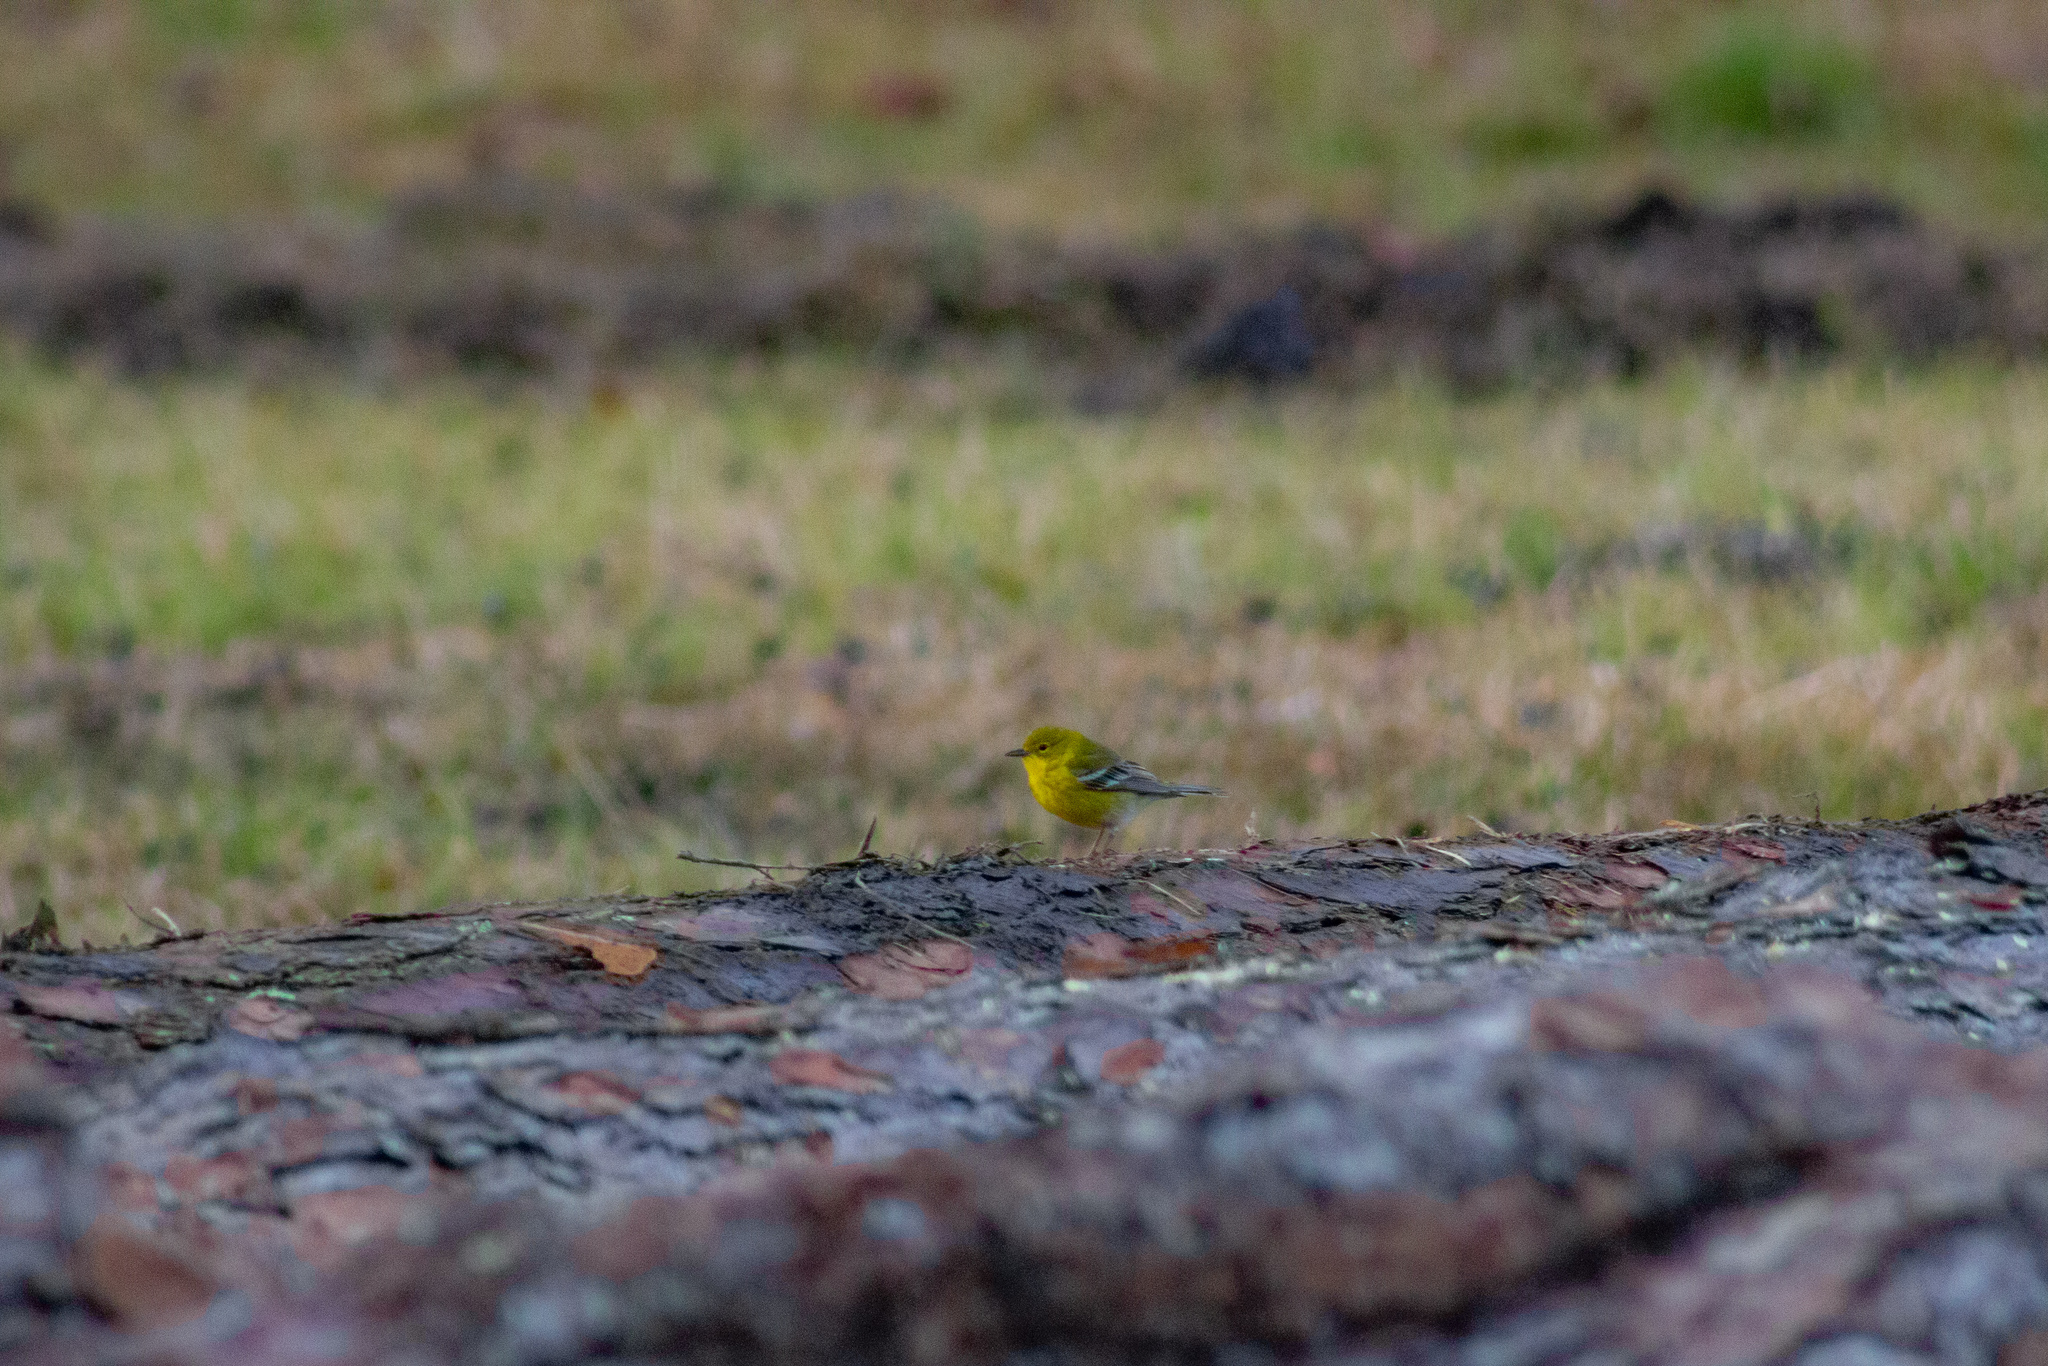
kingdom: Animalia
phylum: Chordata
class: Aves
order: Passeriformes
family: Parulidae
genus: Setophaga
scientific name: Setophaga pinus
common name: Pine warbler
